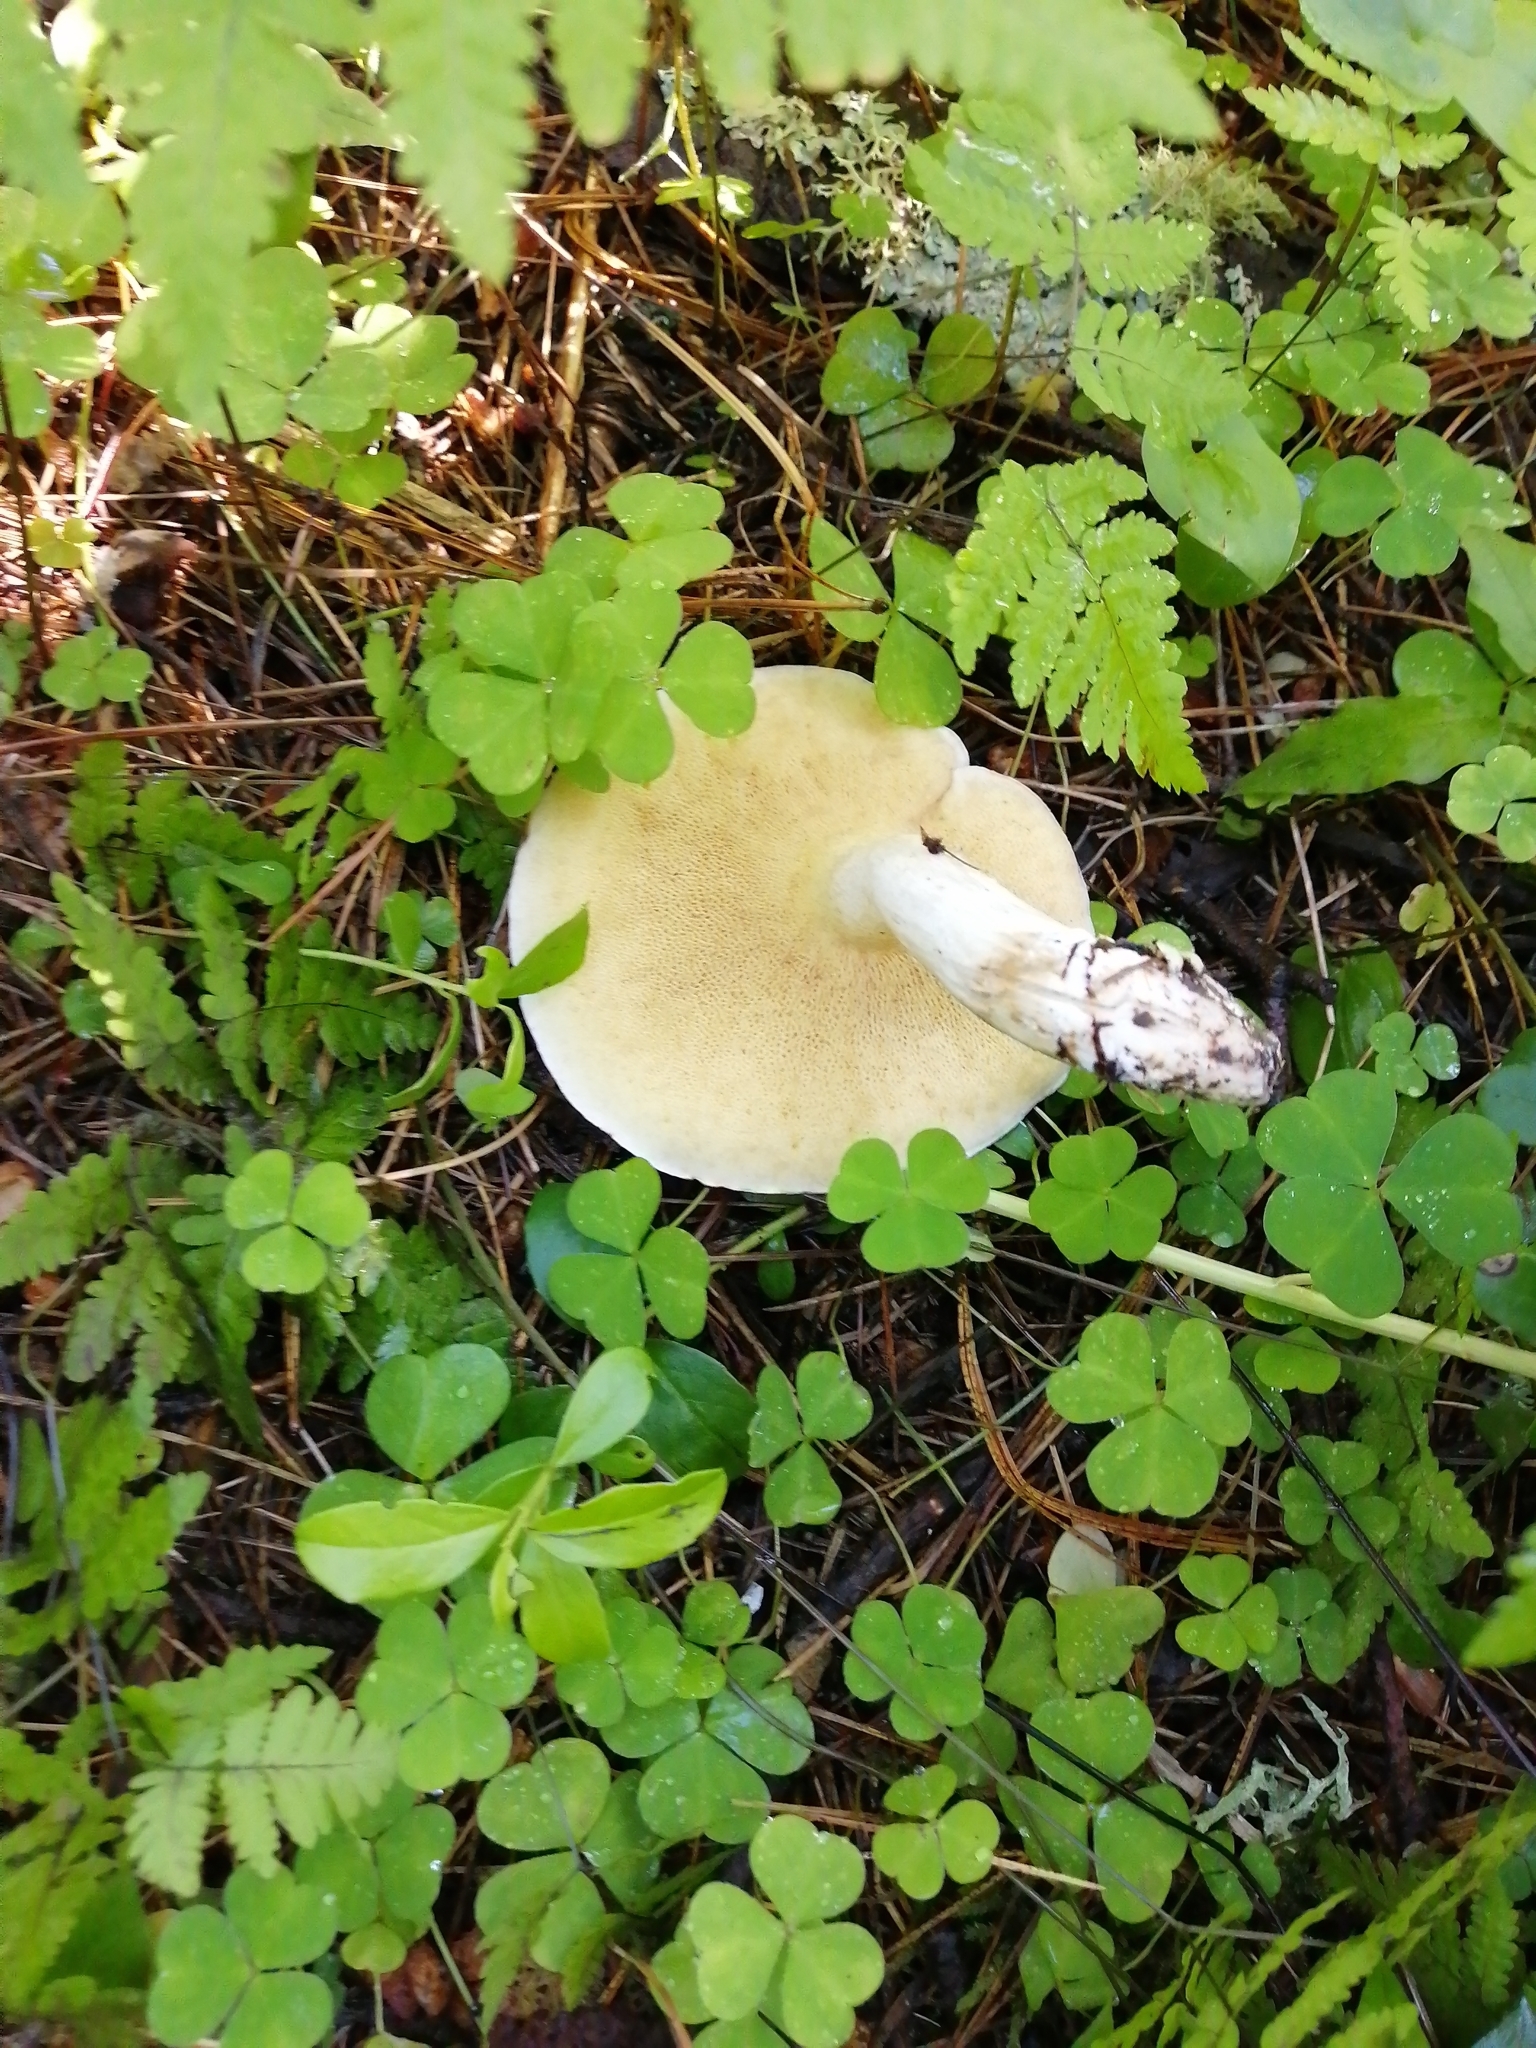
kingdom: Fungi
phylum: Basidiomycota
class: Agaricomycetes
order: Boletales
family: Suillaceae
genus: Suillus
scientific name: Suillus placidus
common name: Slippery white bolete
